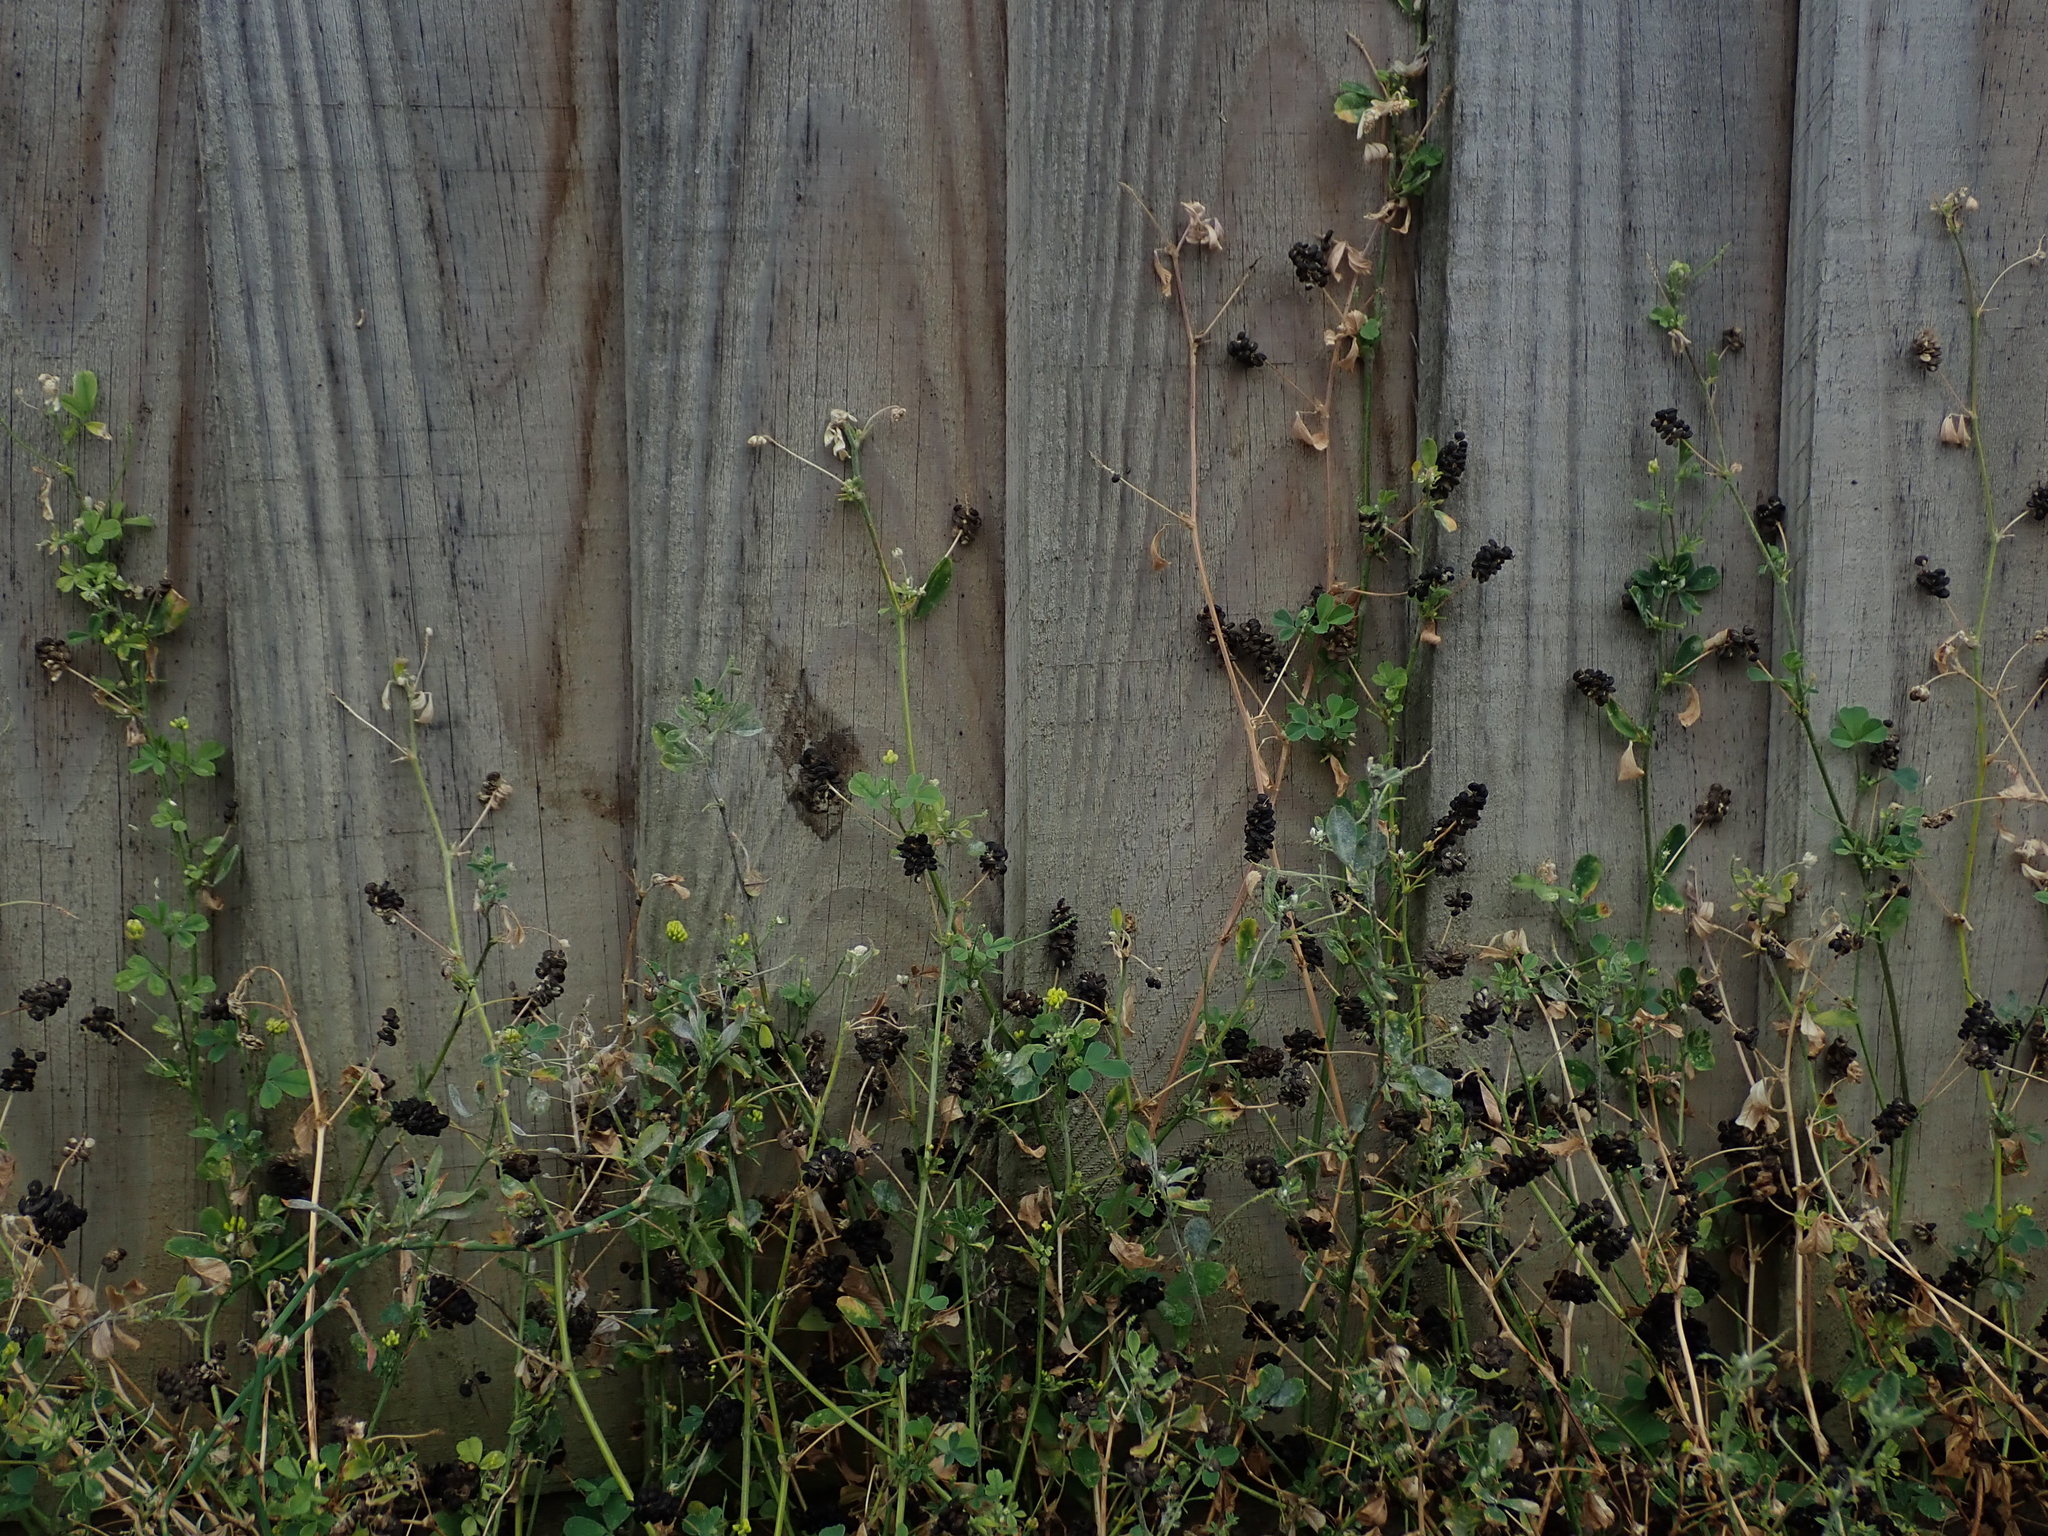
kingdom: Plantae
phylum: Tracheophyta
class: Magnoliopsida
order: Fabales
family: Fabaceae
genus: Medicago
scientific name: Medicago lupulina
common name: Black medick
